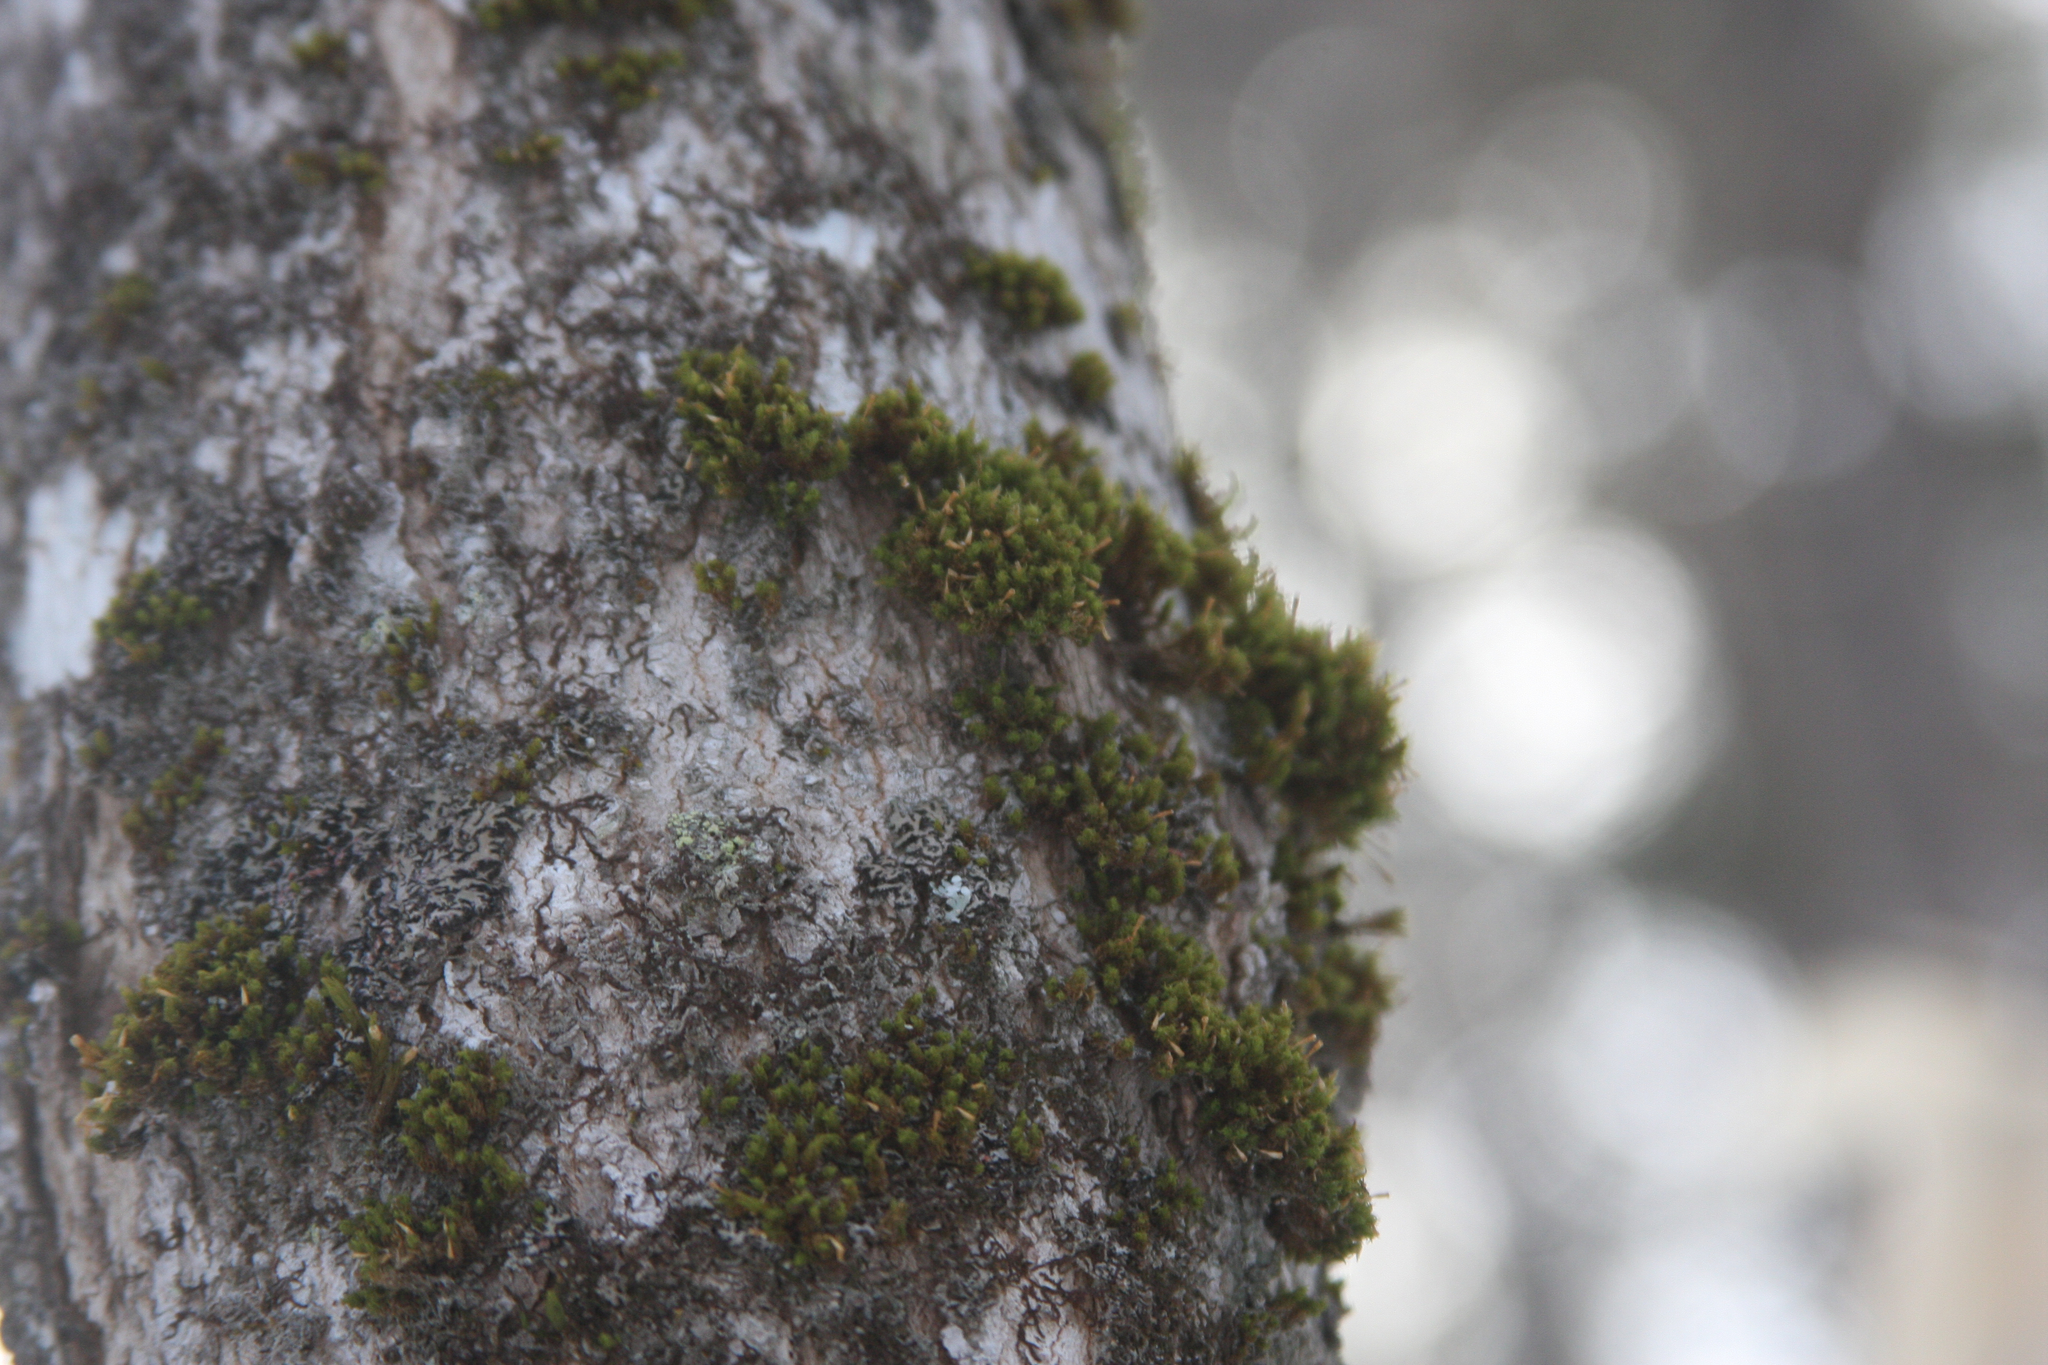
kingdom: Plantae
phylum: Bryophyta
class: Bryopsida
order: Orthotrichales
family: Orthotrichaceae
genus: Ulota
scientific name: Ulota crispa
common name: Crisped pincushion moss
